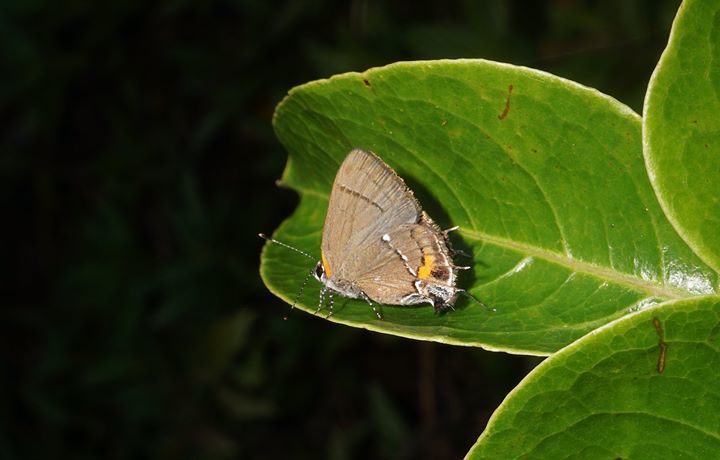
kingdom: Animalia
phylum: Arthropoda
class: Insecta
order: Lepidoptera
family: Lycaenidae
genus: Thecla
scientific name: Thecla angelia
